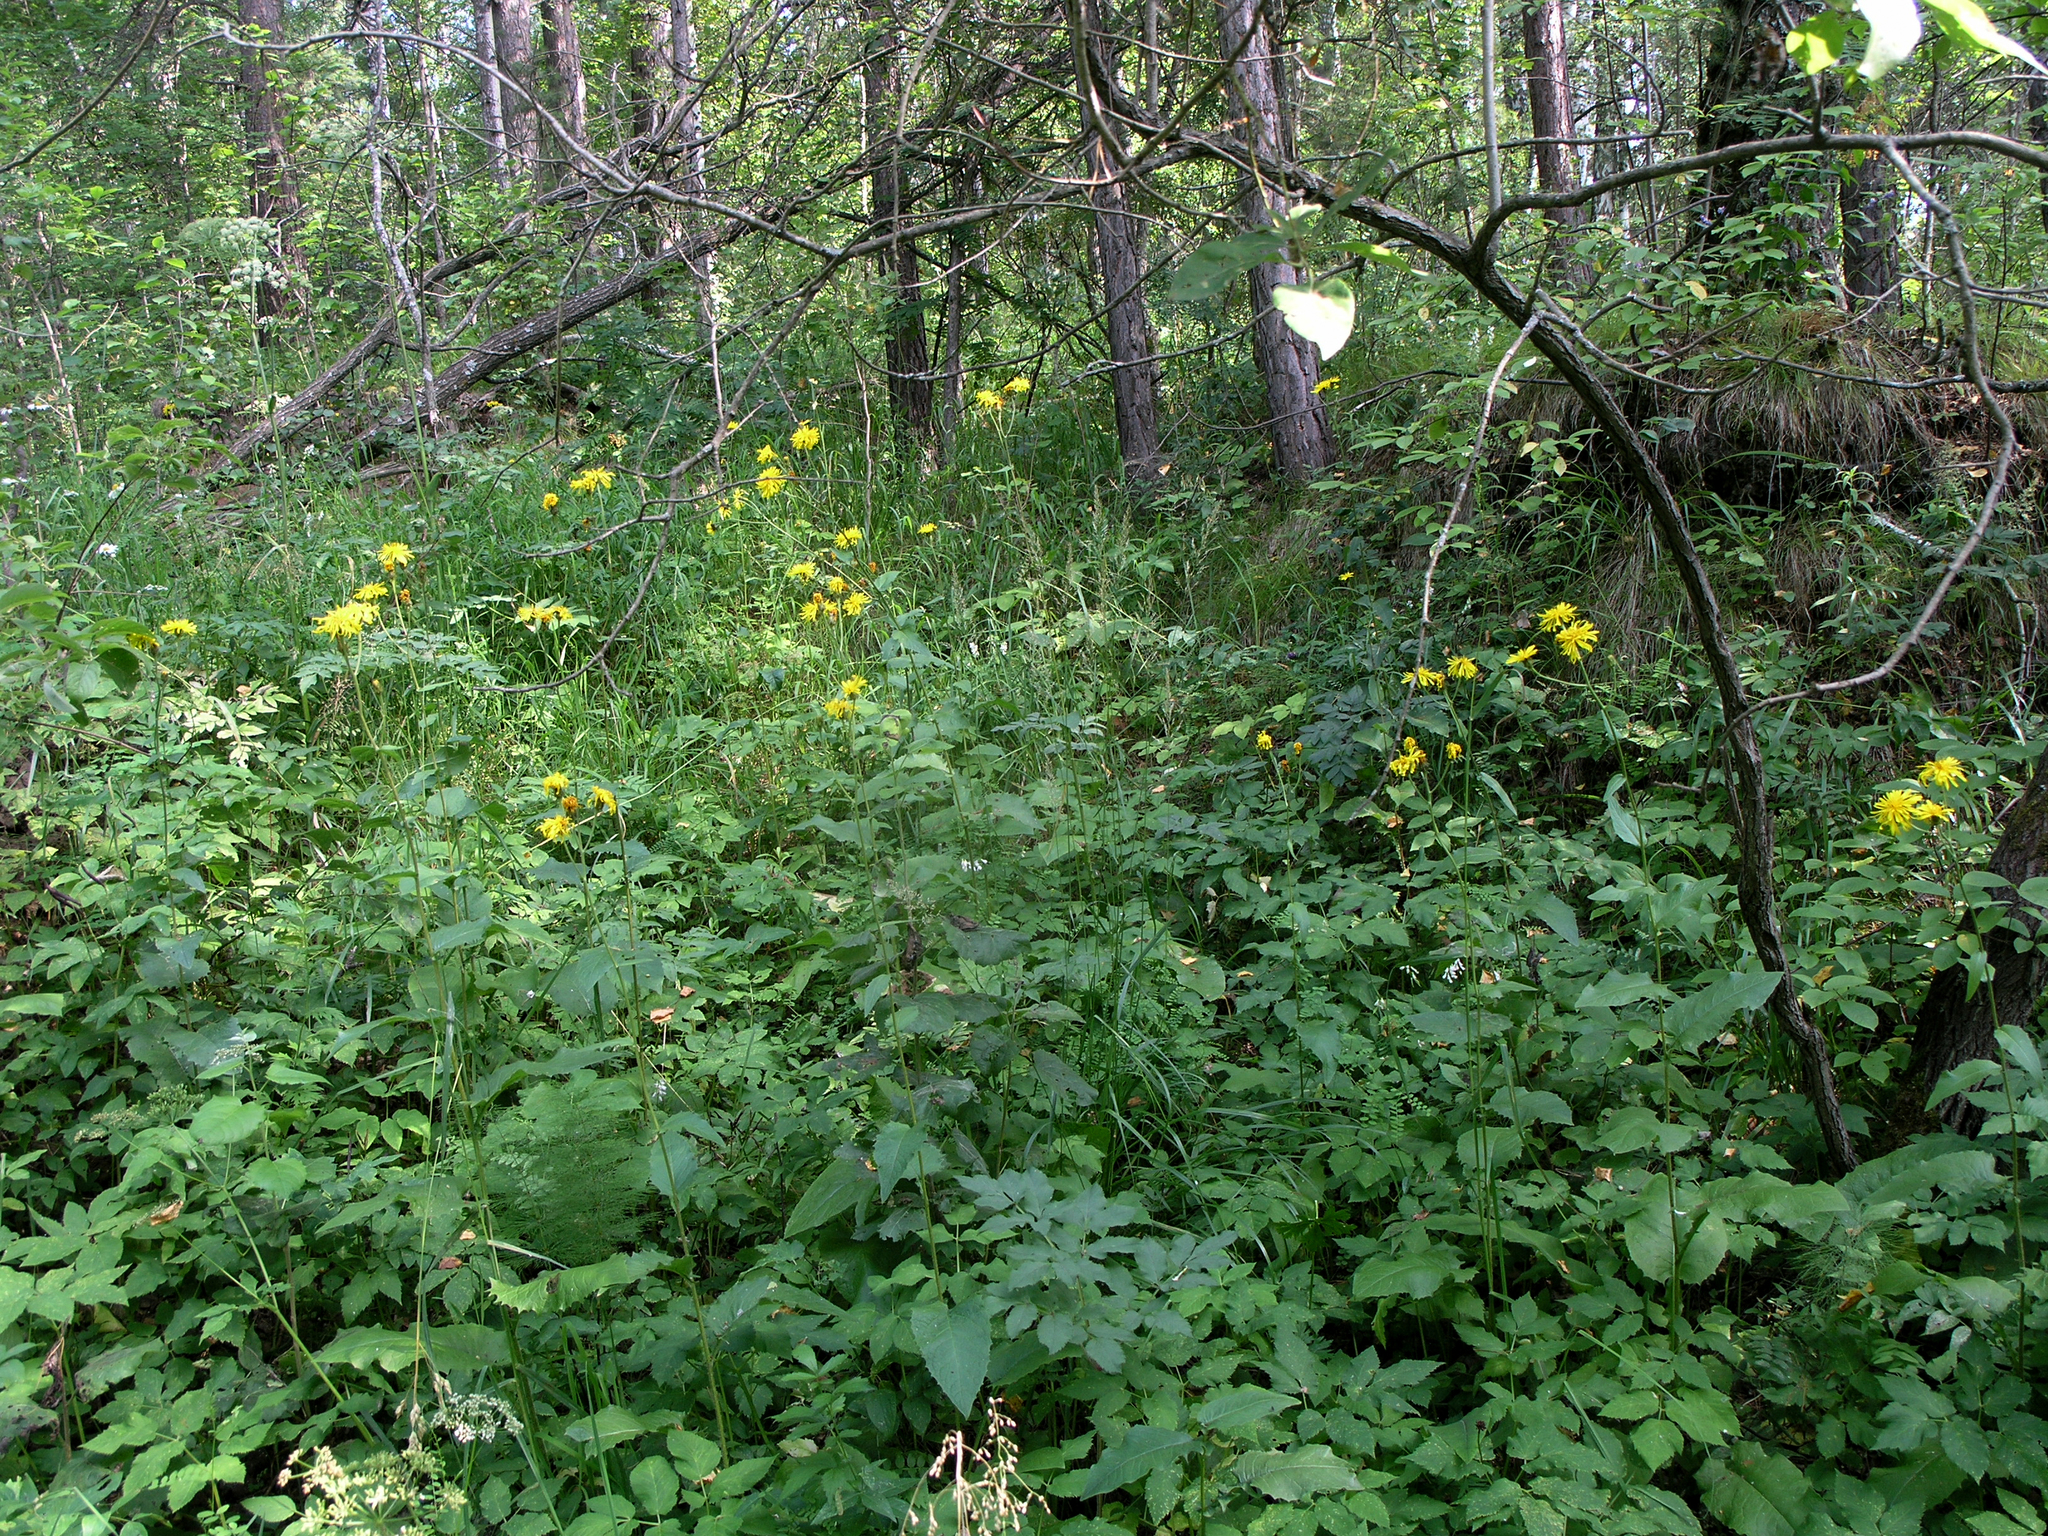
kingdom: Plantae
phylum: Tracheophyta
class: Magnoliopsida
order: Asterales
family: Asteraceae
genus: Crepis
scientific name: Crepis sibirica
